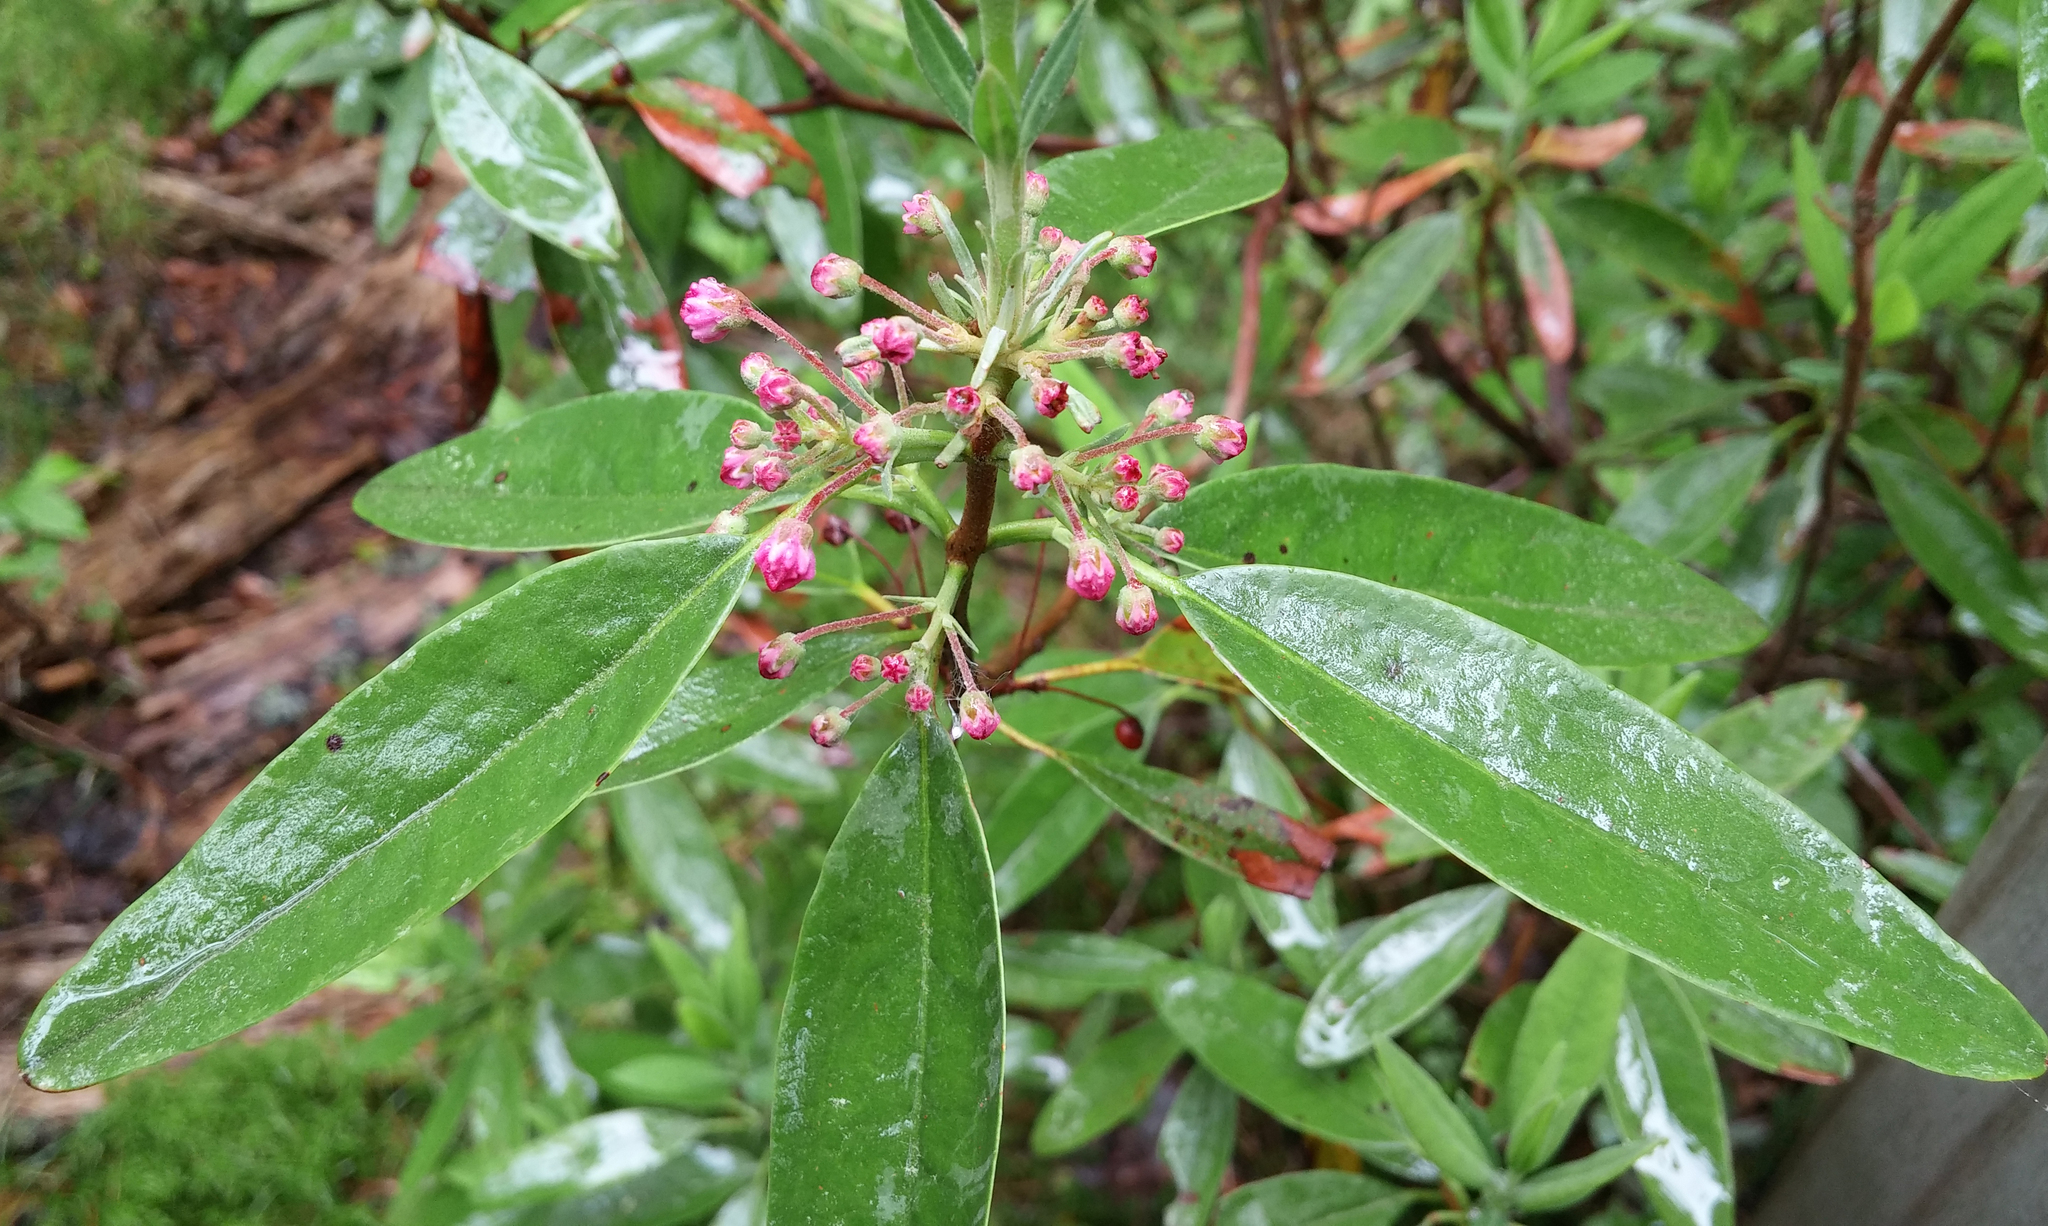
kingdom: Plantae
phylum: Tracheophyta
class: Magnoliopsida
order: Ericales
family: Ericaceae
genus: Kalmia
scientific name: Kalmia angustifolia
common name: Sheep-laurel
